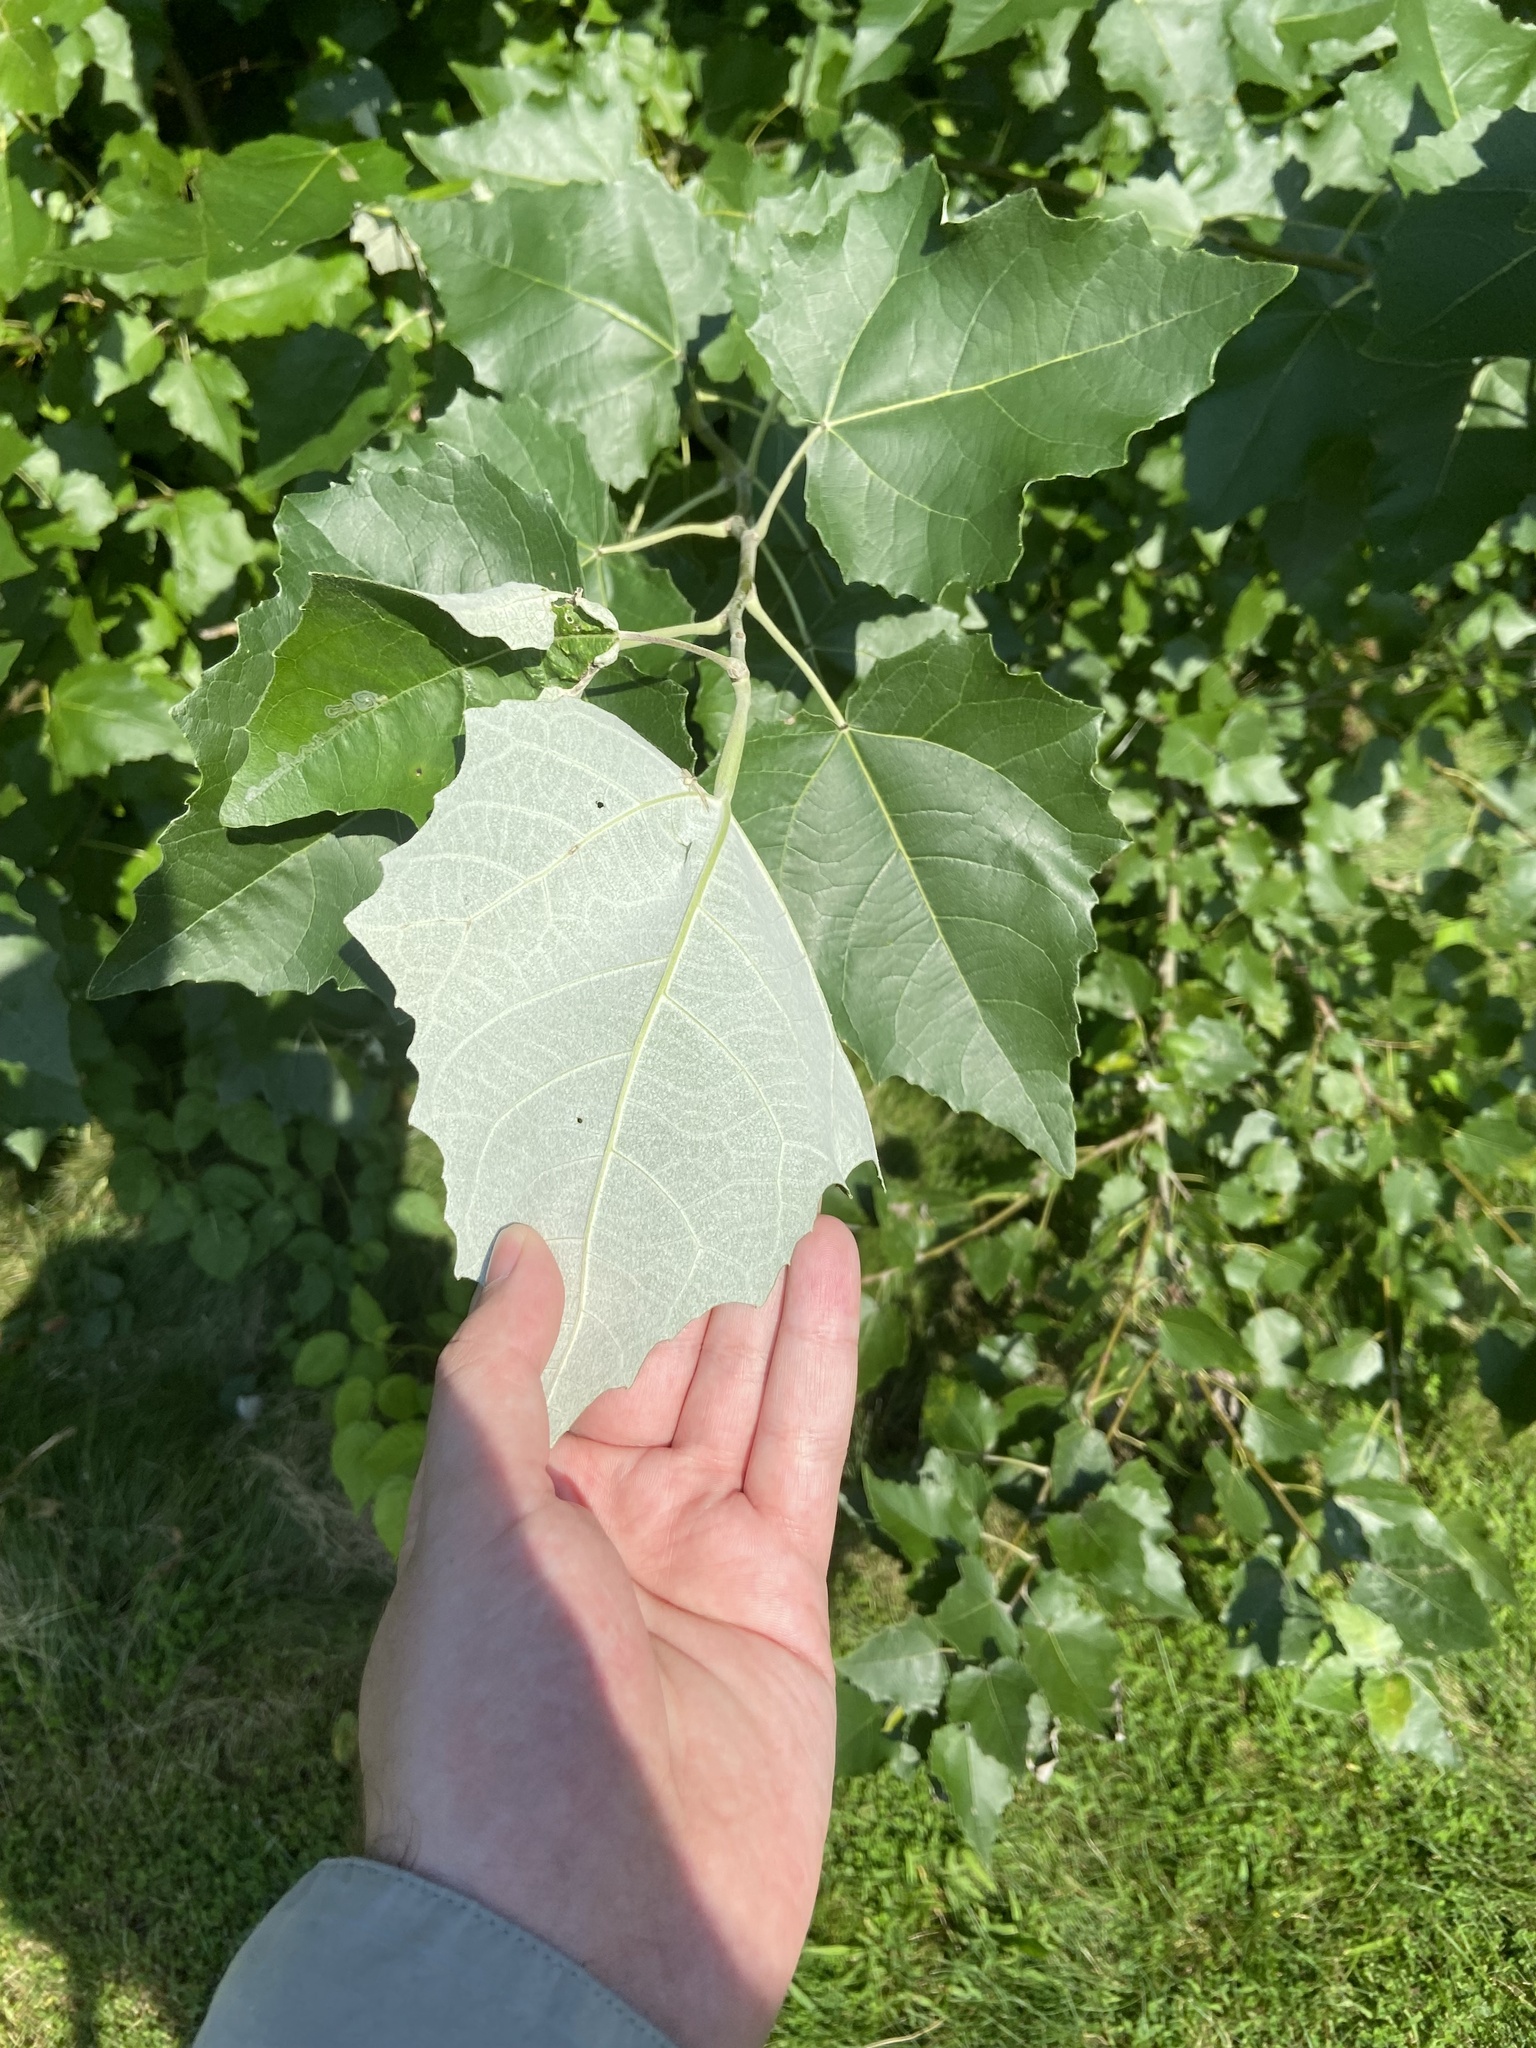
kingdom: Plantae
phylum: Tracheophyta
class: Magnoliopsida
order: Malpighiales
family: Salicaceae
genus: Populus
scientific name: Populus alba
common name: White poplar
